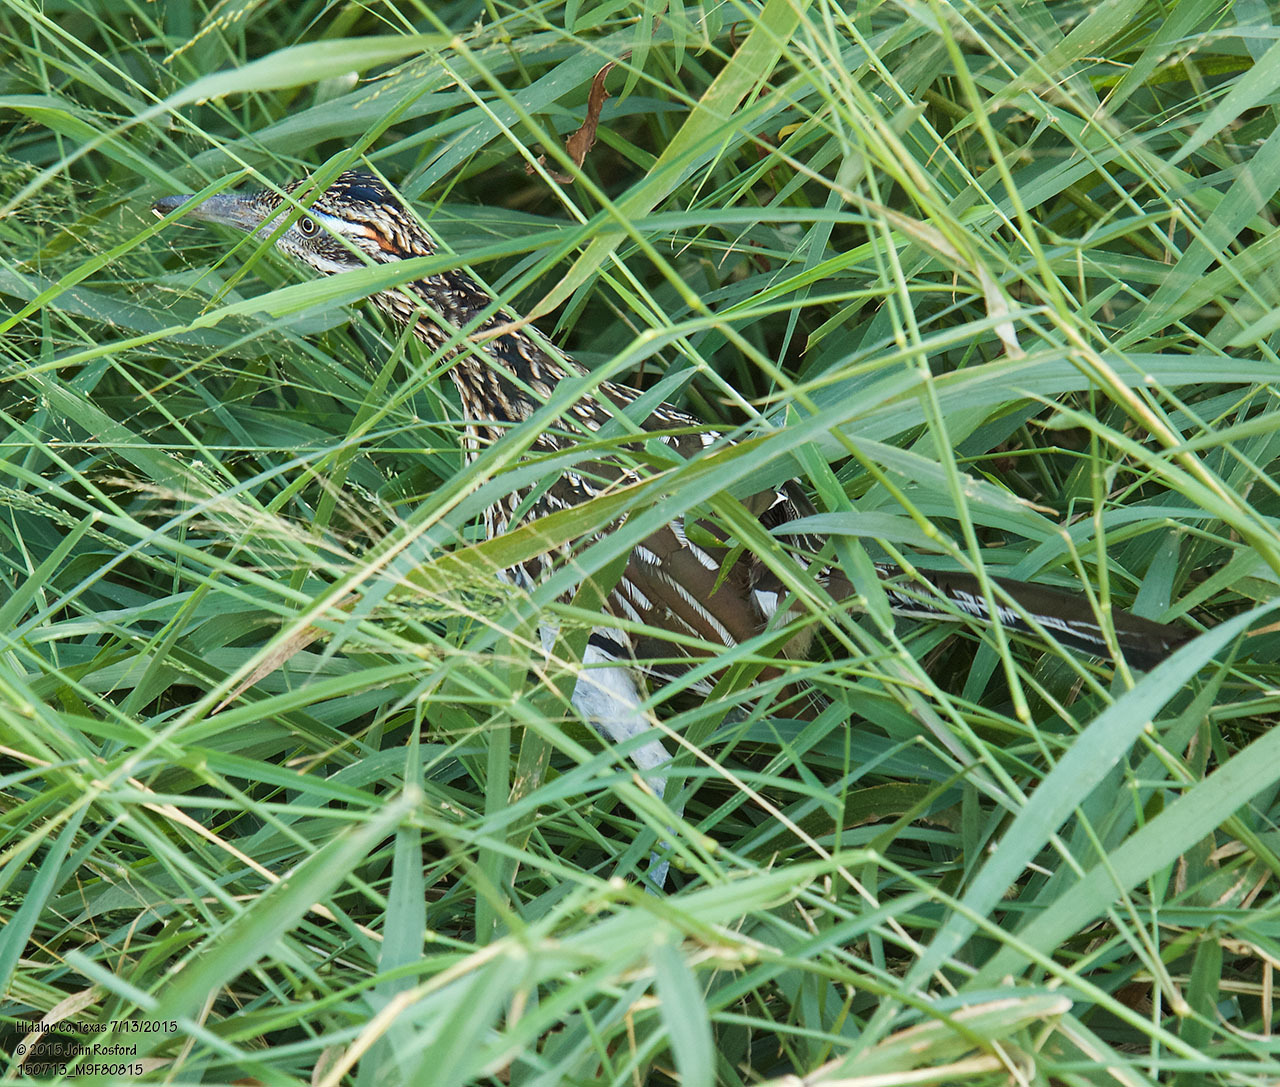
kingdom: Animalia
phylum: Chordata
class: Aves
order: Cuculiformes
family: Cuculidae
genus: Geococcyx
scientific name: Geococcyx californianus
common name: Greater roadrunner
